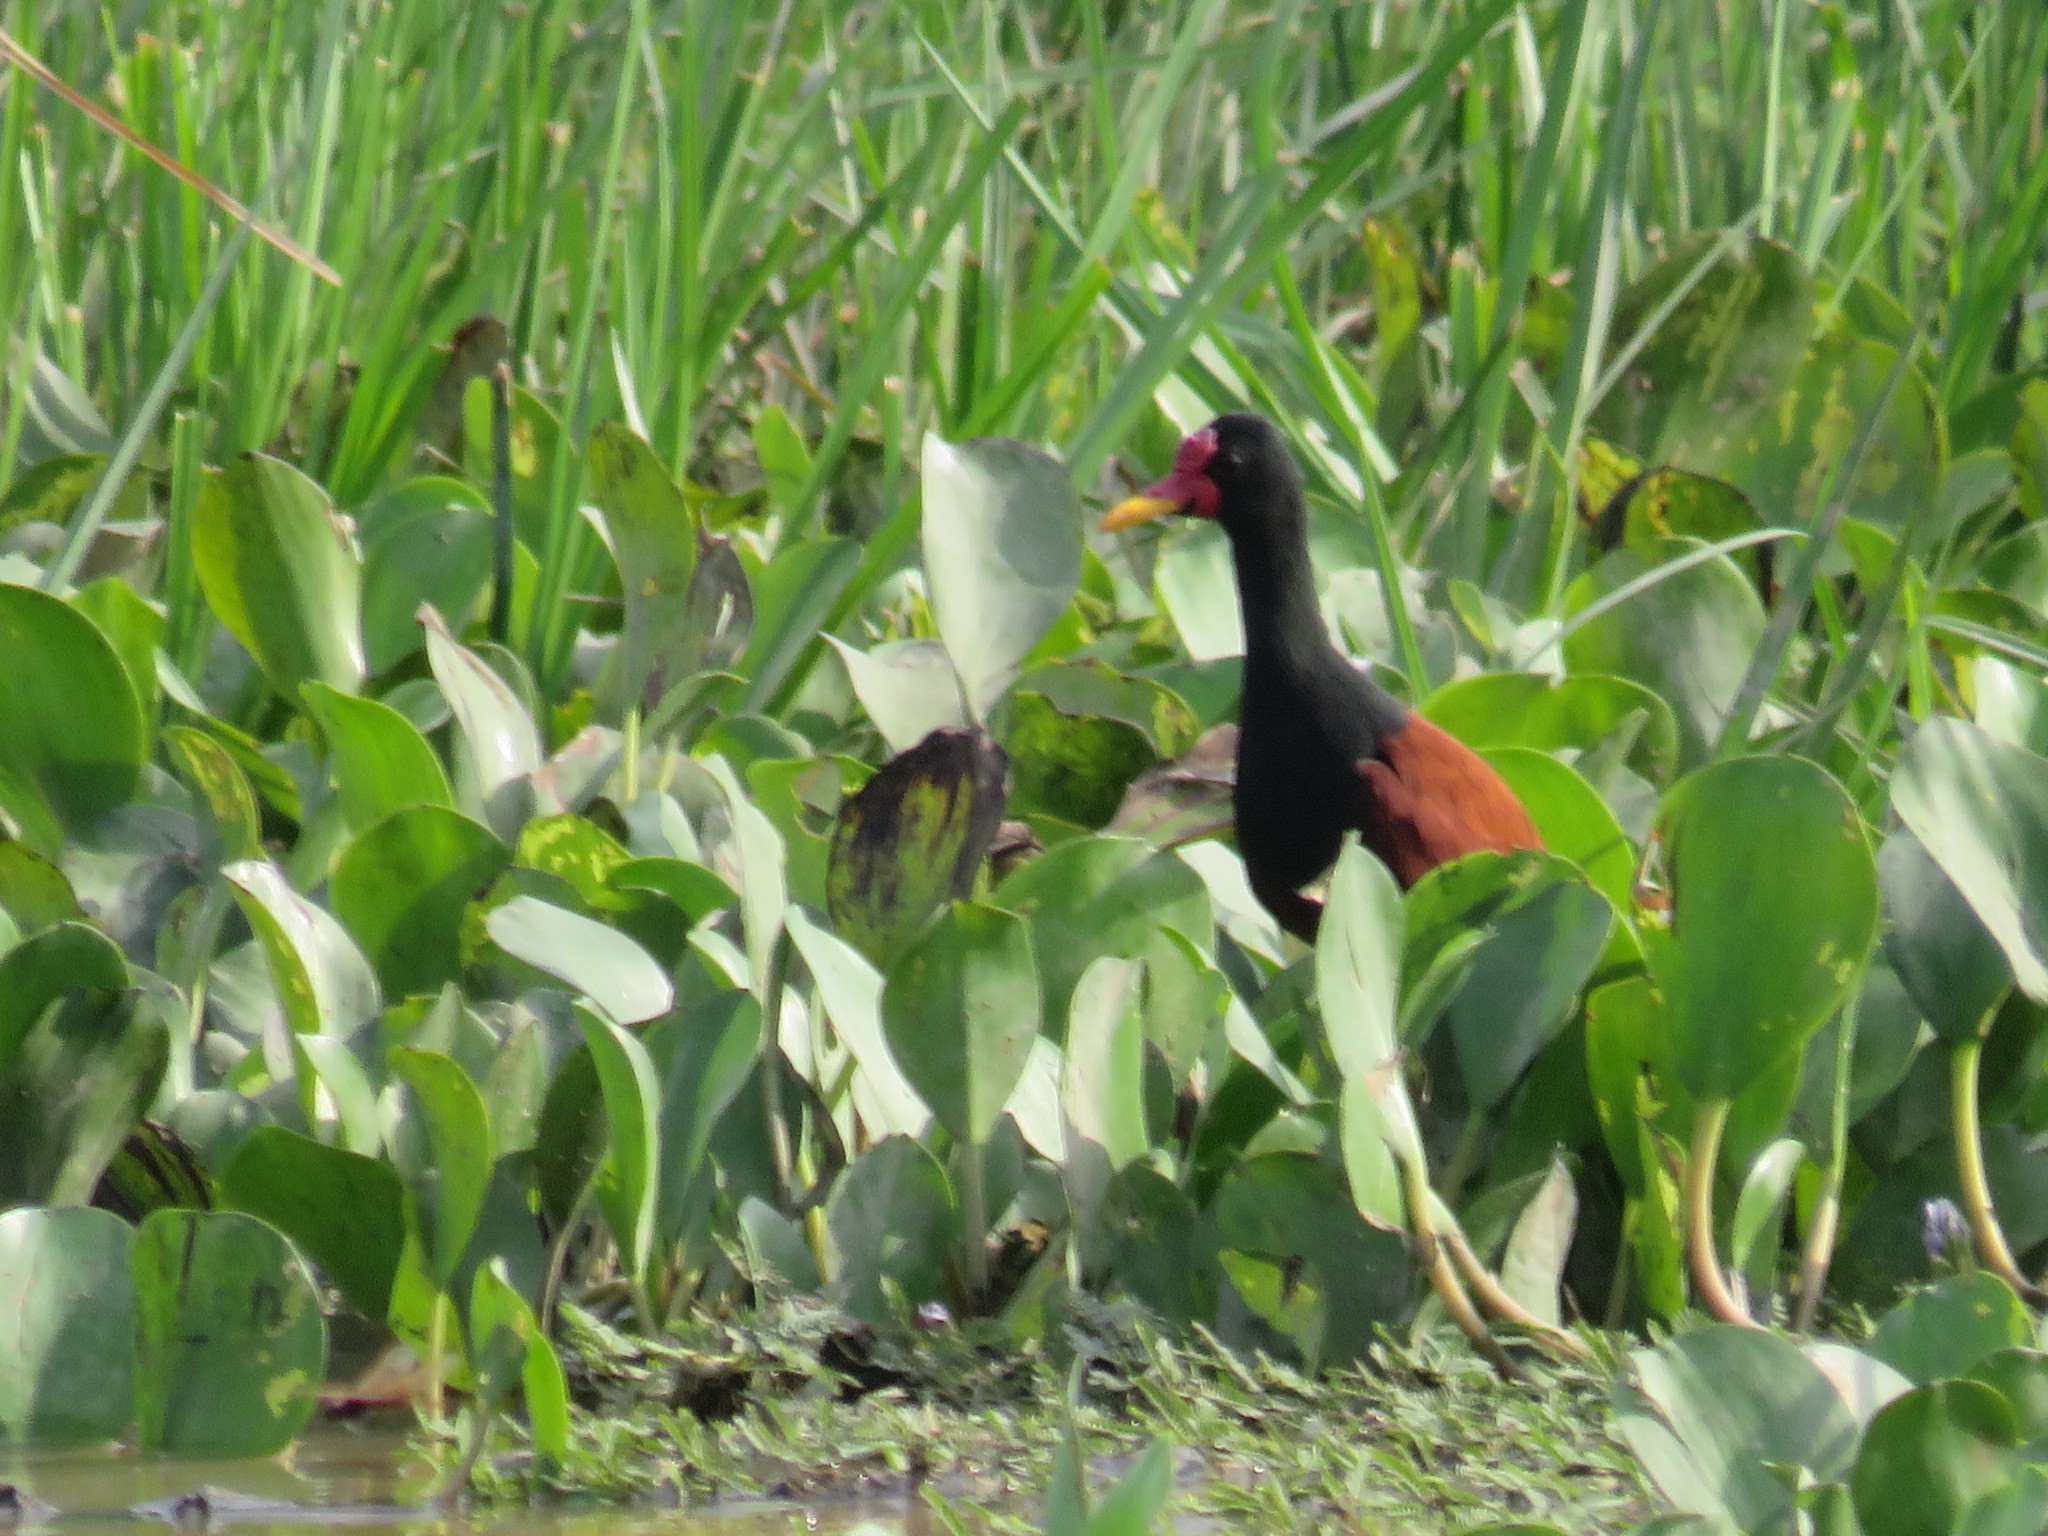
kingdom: Animalia
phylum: Chordata
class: Aves
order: Charadriiformes
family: Jacanidae
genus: Jacana
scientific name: Jacana jacana
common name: Wattled jacana
